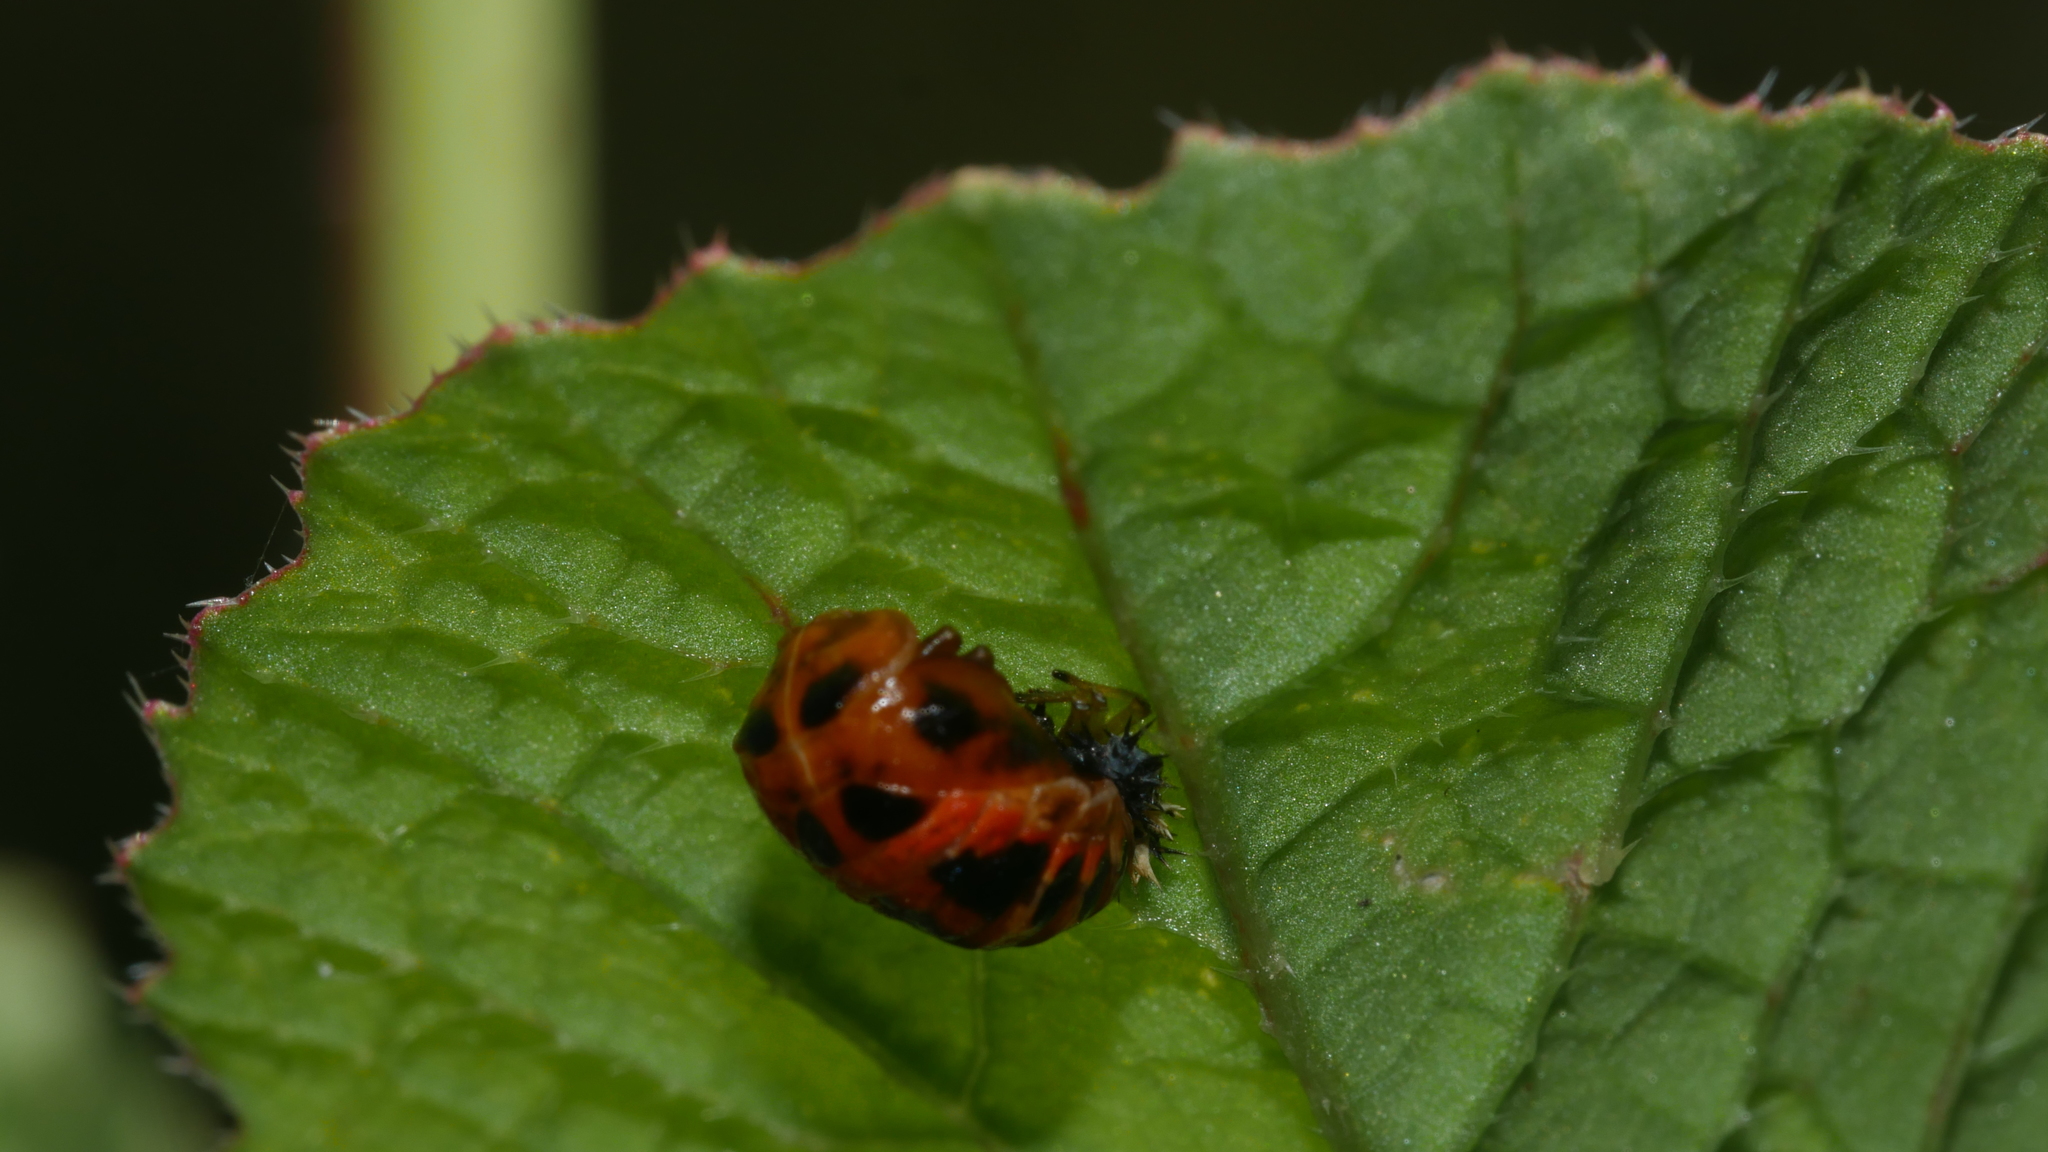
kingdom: Animalia
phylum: Arthropoda
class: Insecta
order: Coleoptera
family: Coccinellidae
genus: Harmonia
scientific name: Harmonia axyridis
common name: Harlequin ladybird
